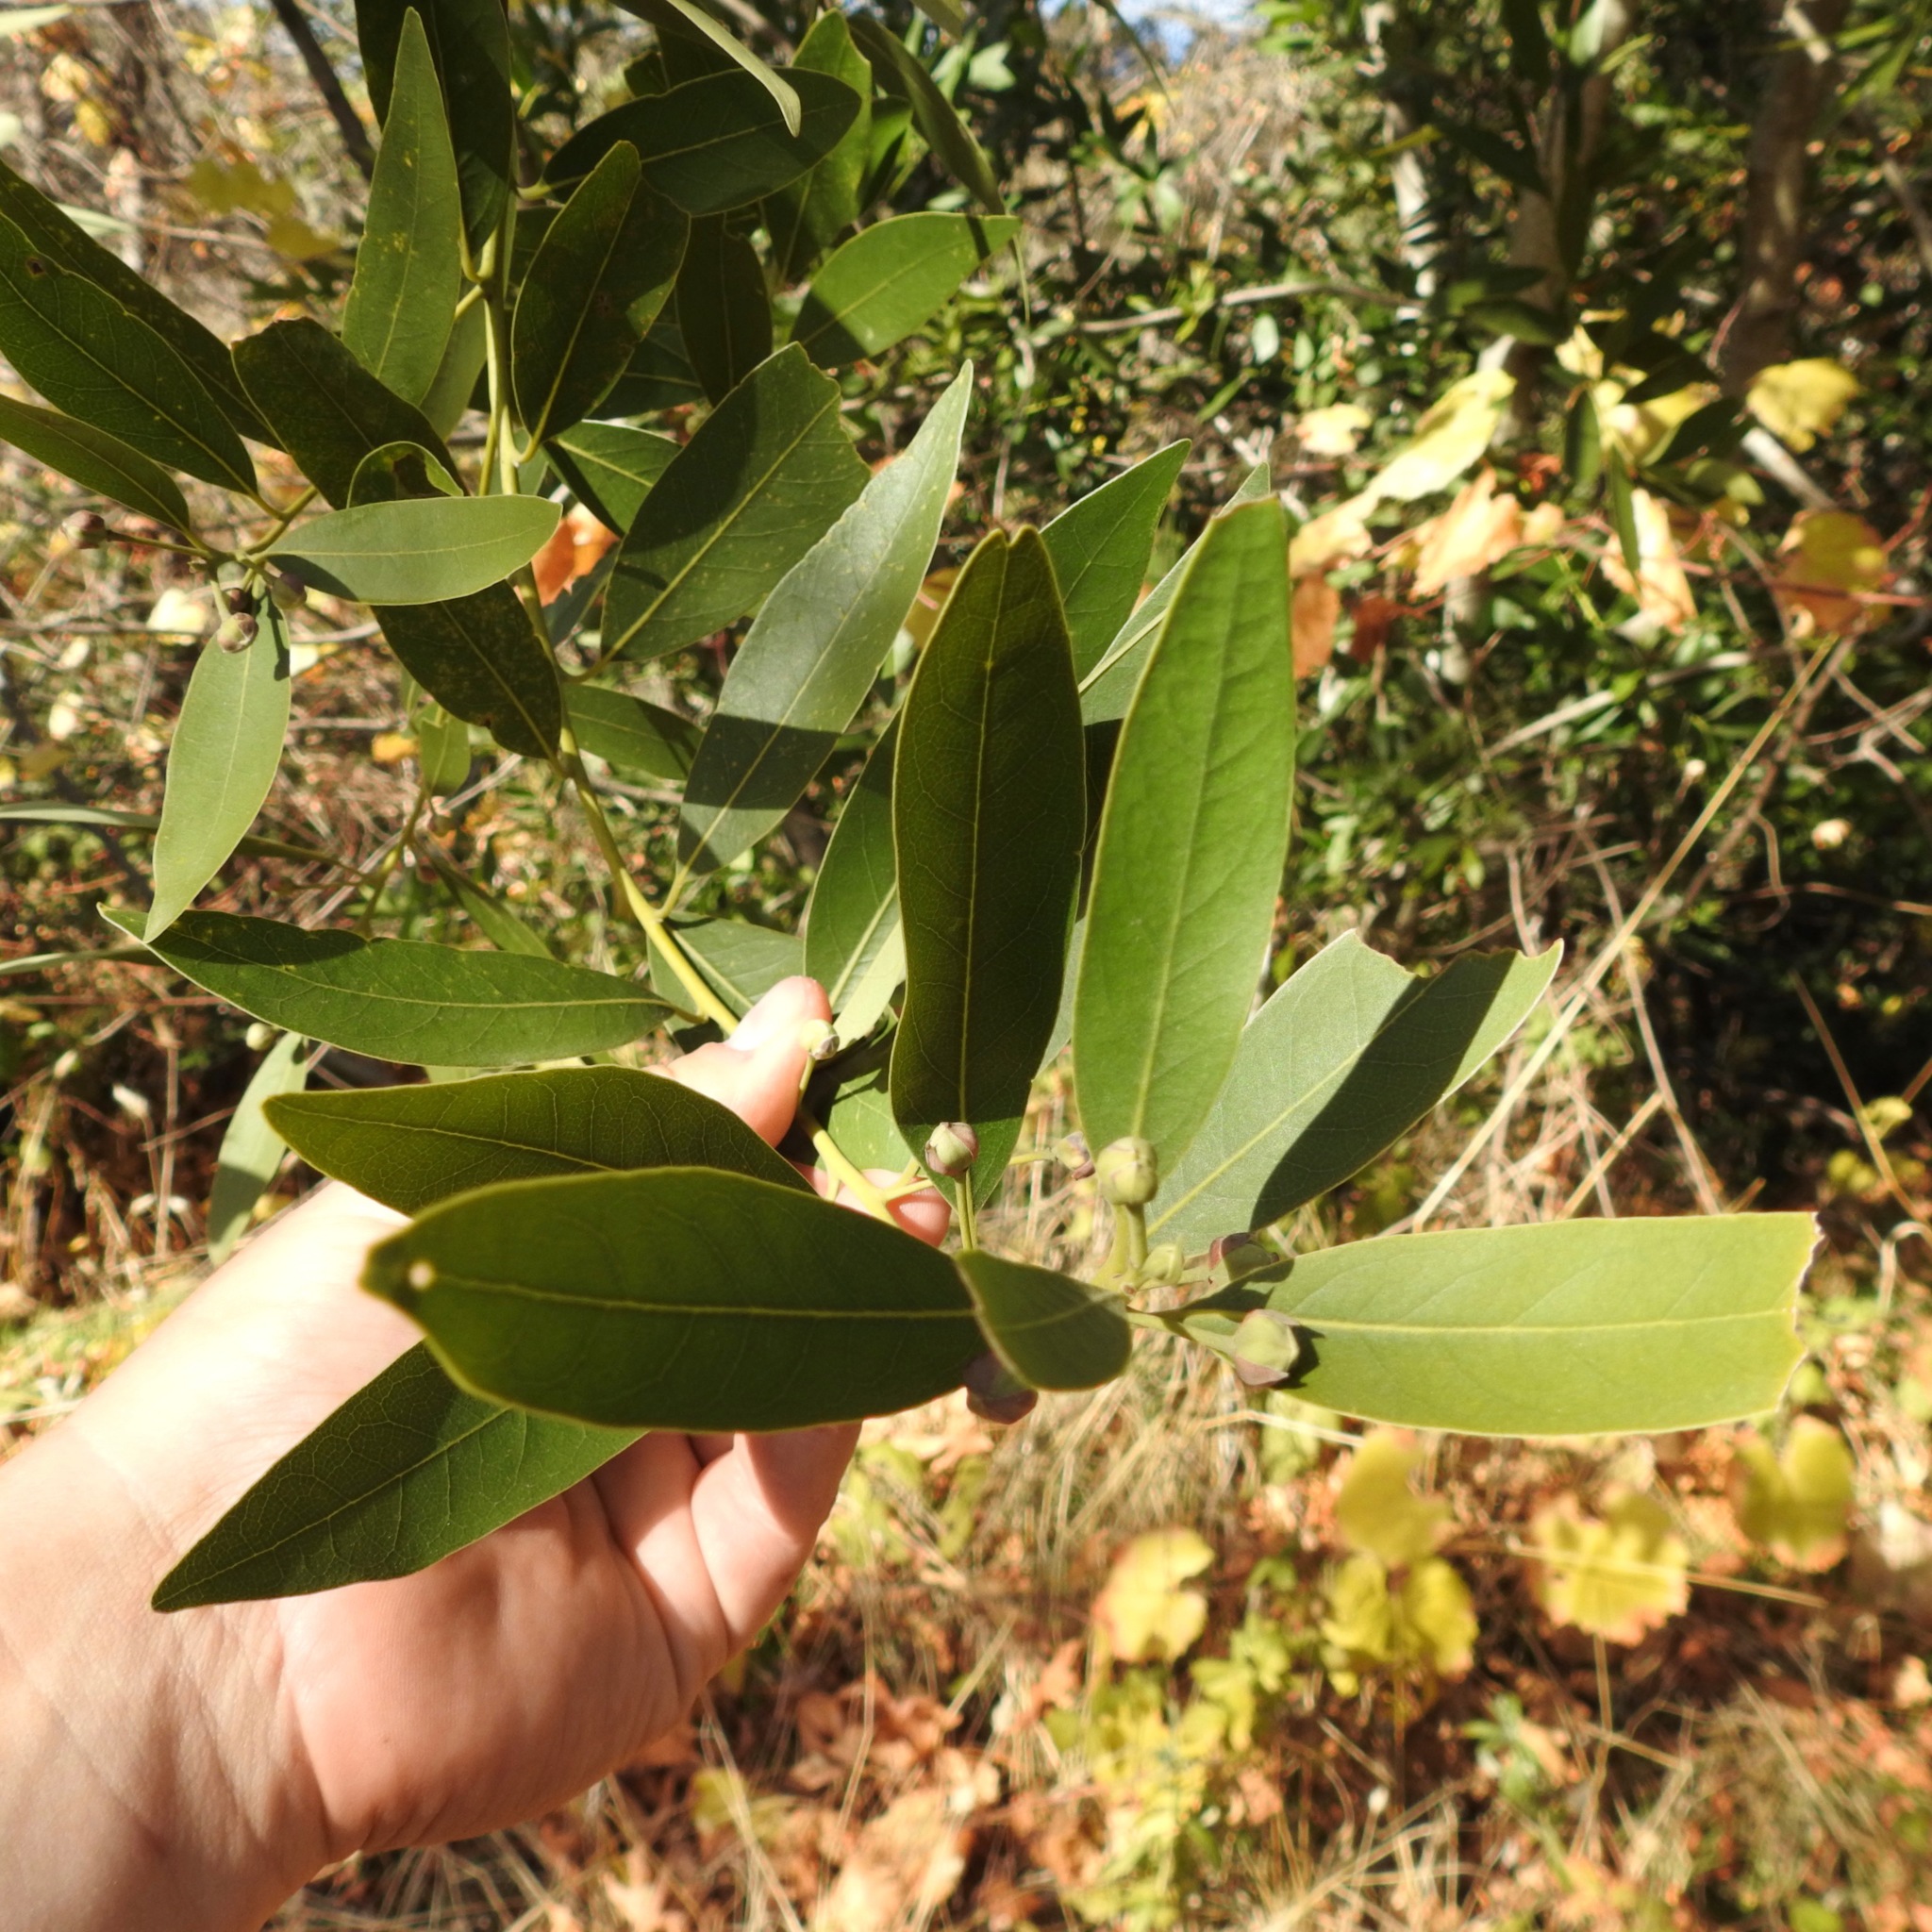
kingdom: Plantae
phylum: Tracheophyta
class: Magnoliopsida
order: Laurales
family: Lauraceae
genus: Umbellularia
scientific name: Umbellularia californica
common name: California bay
